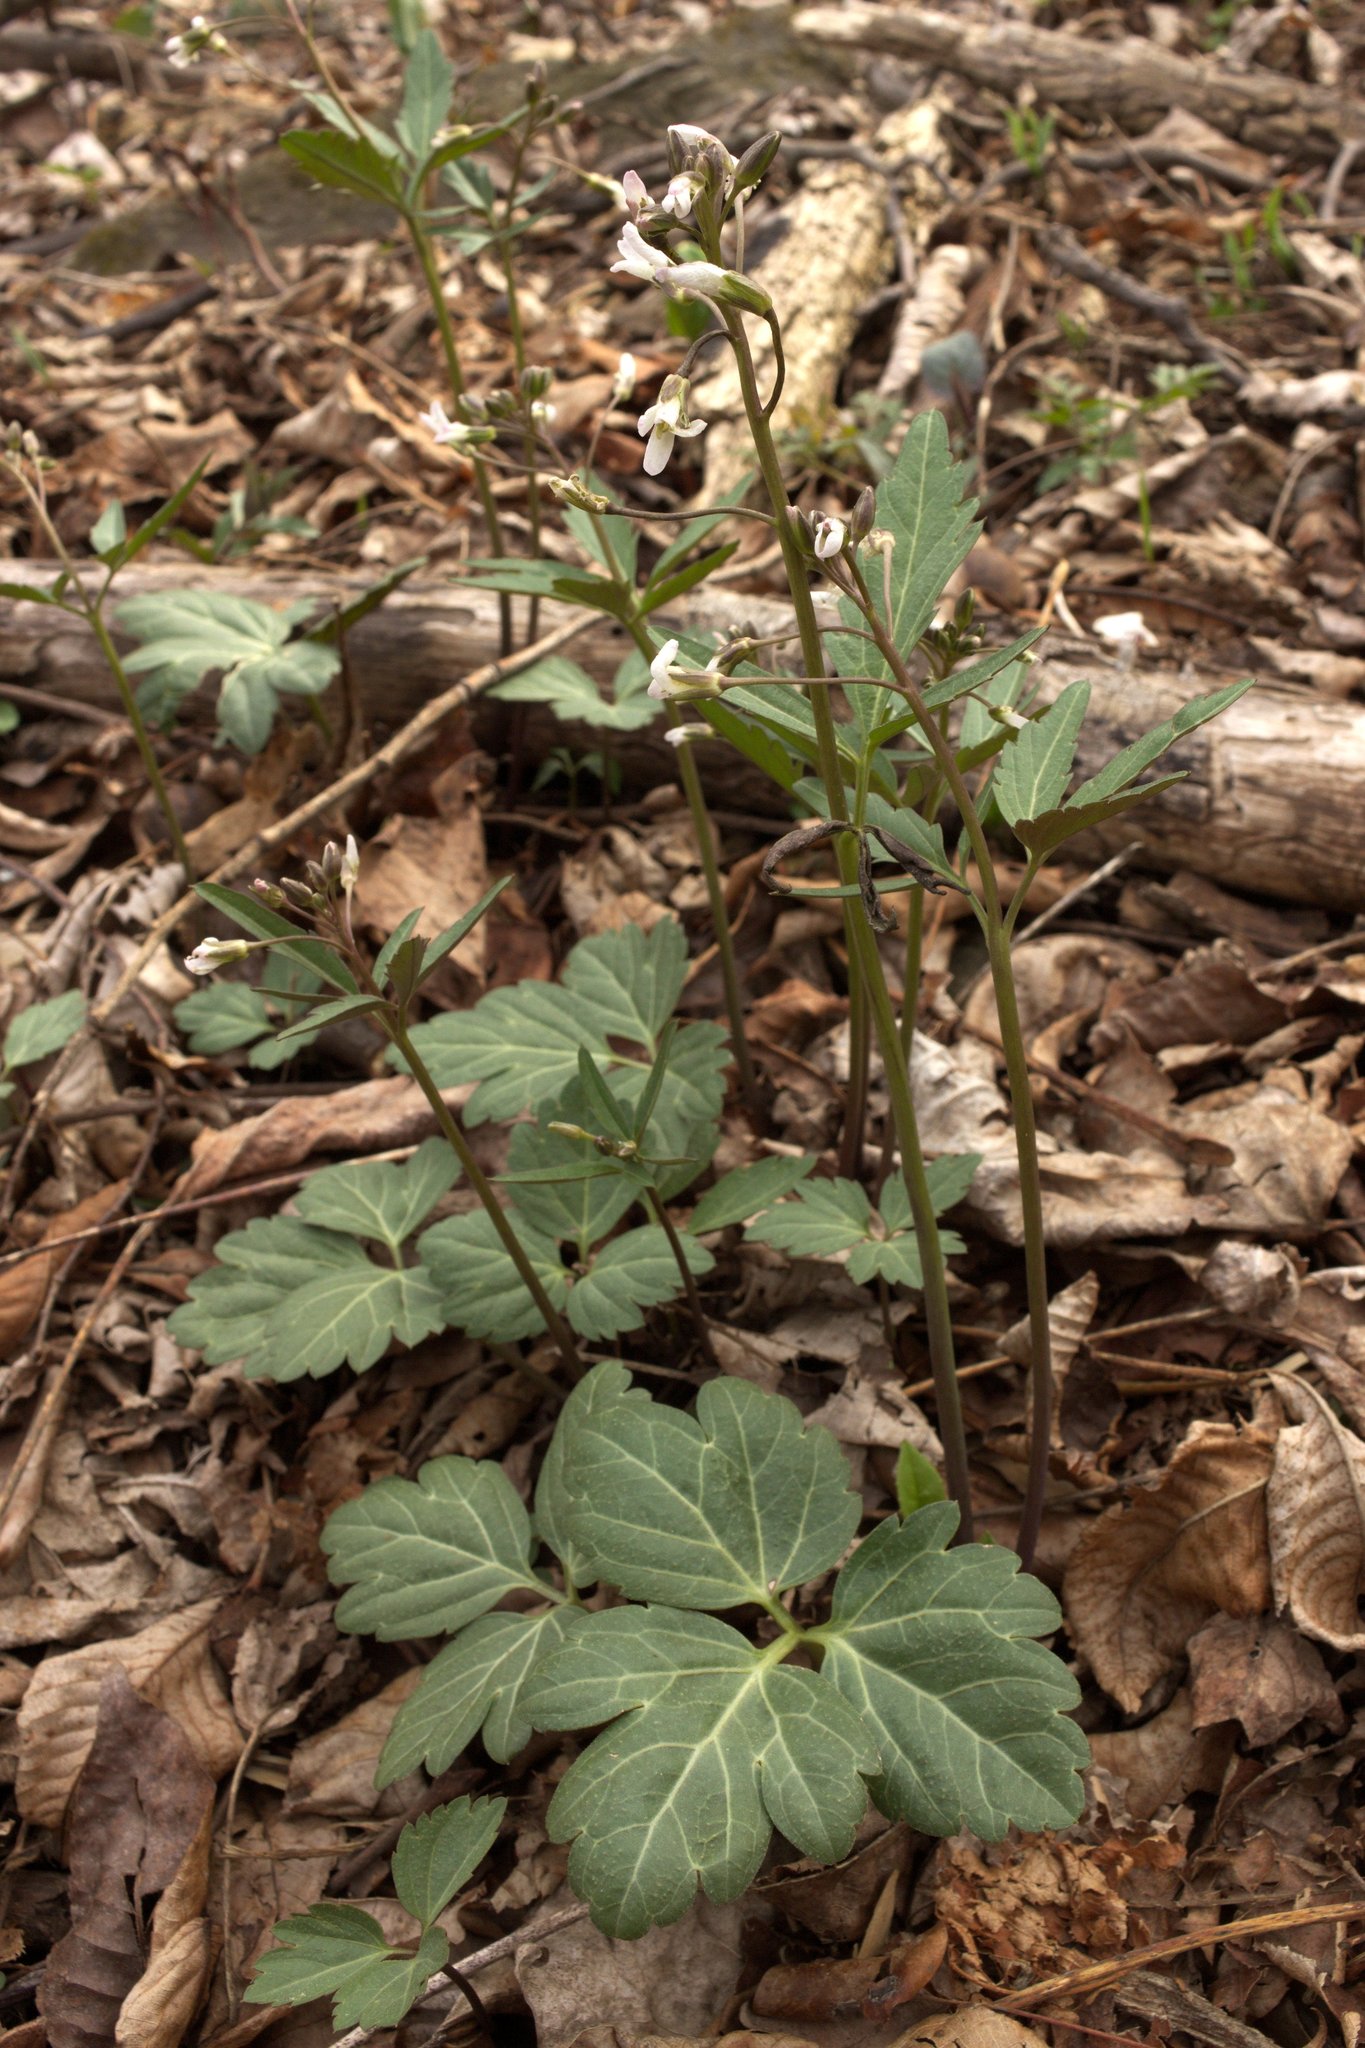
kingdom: Plantae
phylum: Tracheophyta
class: Magnoliopsida
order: Brassicales
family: Brassicaceae
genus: Cardamine
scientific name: Cardamine angustata
